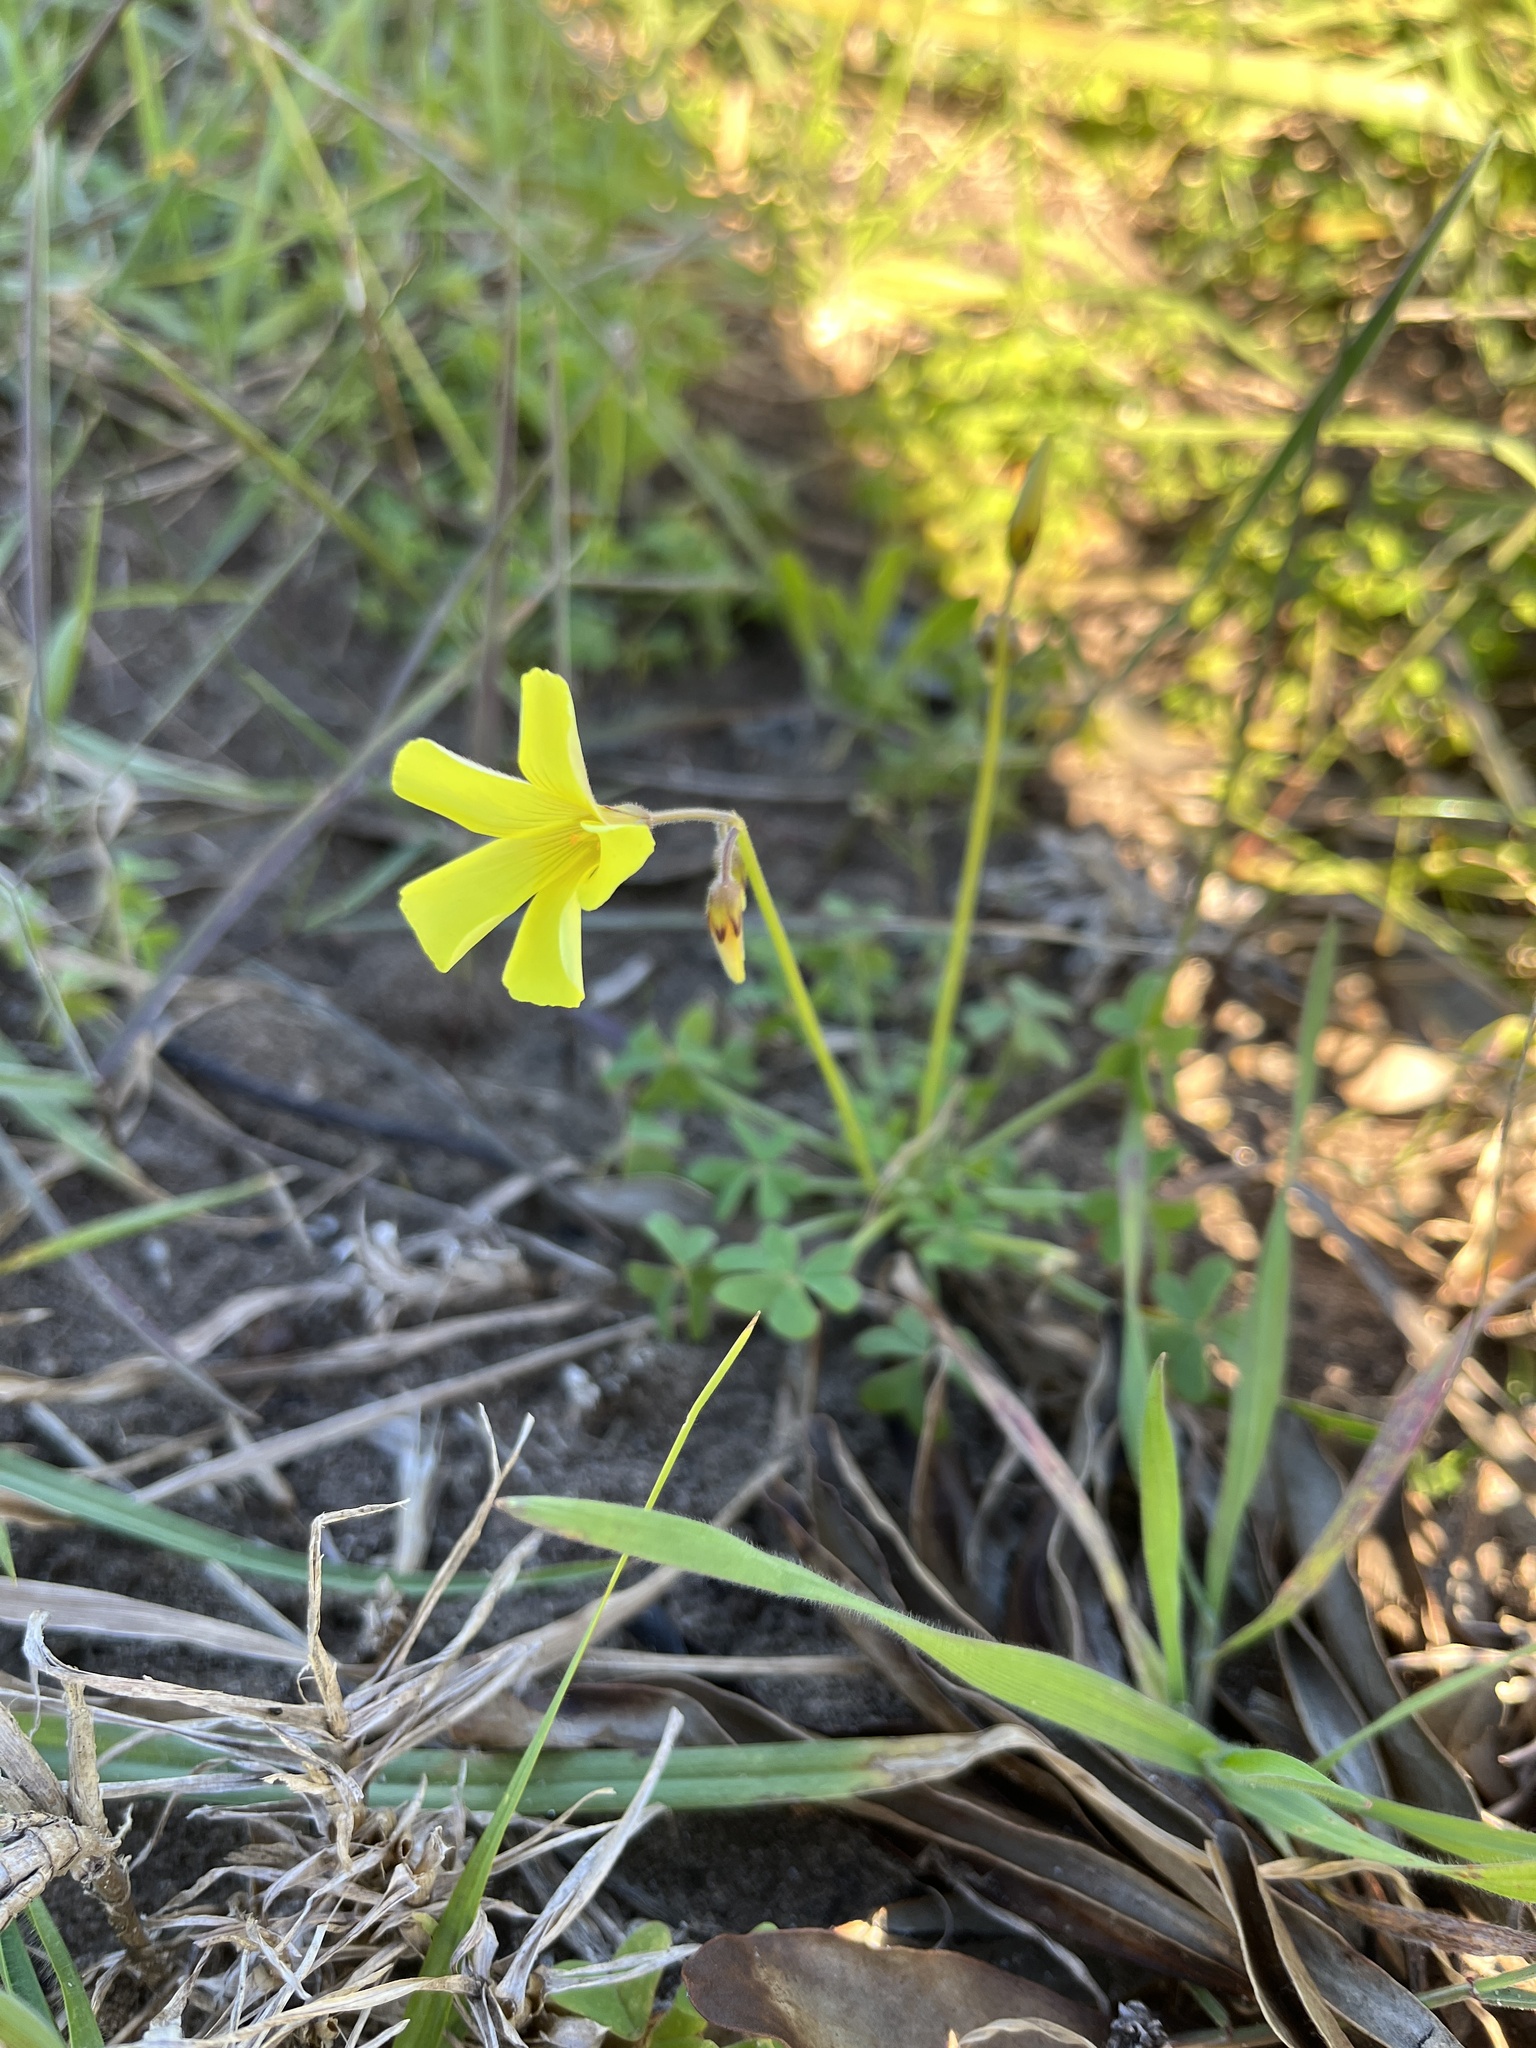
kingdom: Plantae
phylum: Tracheophyta
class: Magnoliopsida
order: Oxalidales
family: Oxalidaceae
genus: Oxalis
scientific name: Oxalis pes-caprae
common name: Bermuda-buttercup
